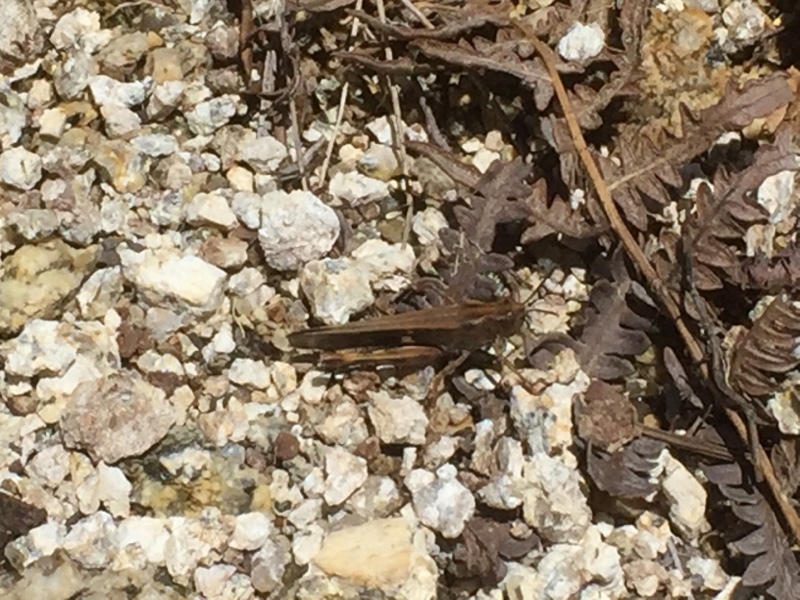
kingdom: Animalia
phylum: Arthropoda
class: Insecta
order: Orthoptera
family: Acrididae
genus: Aiolopus
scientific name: Aiolopus strepens
